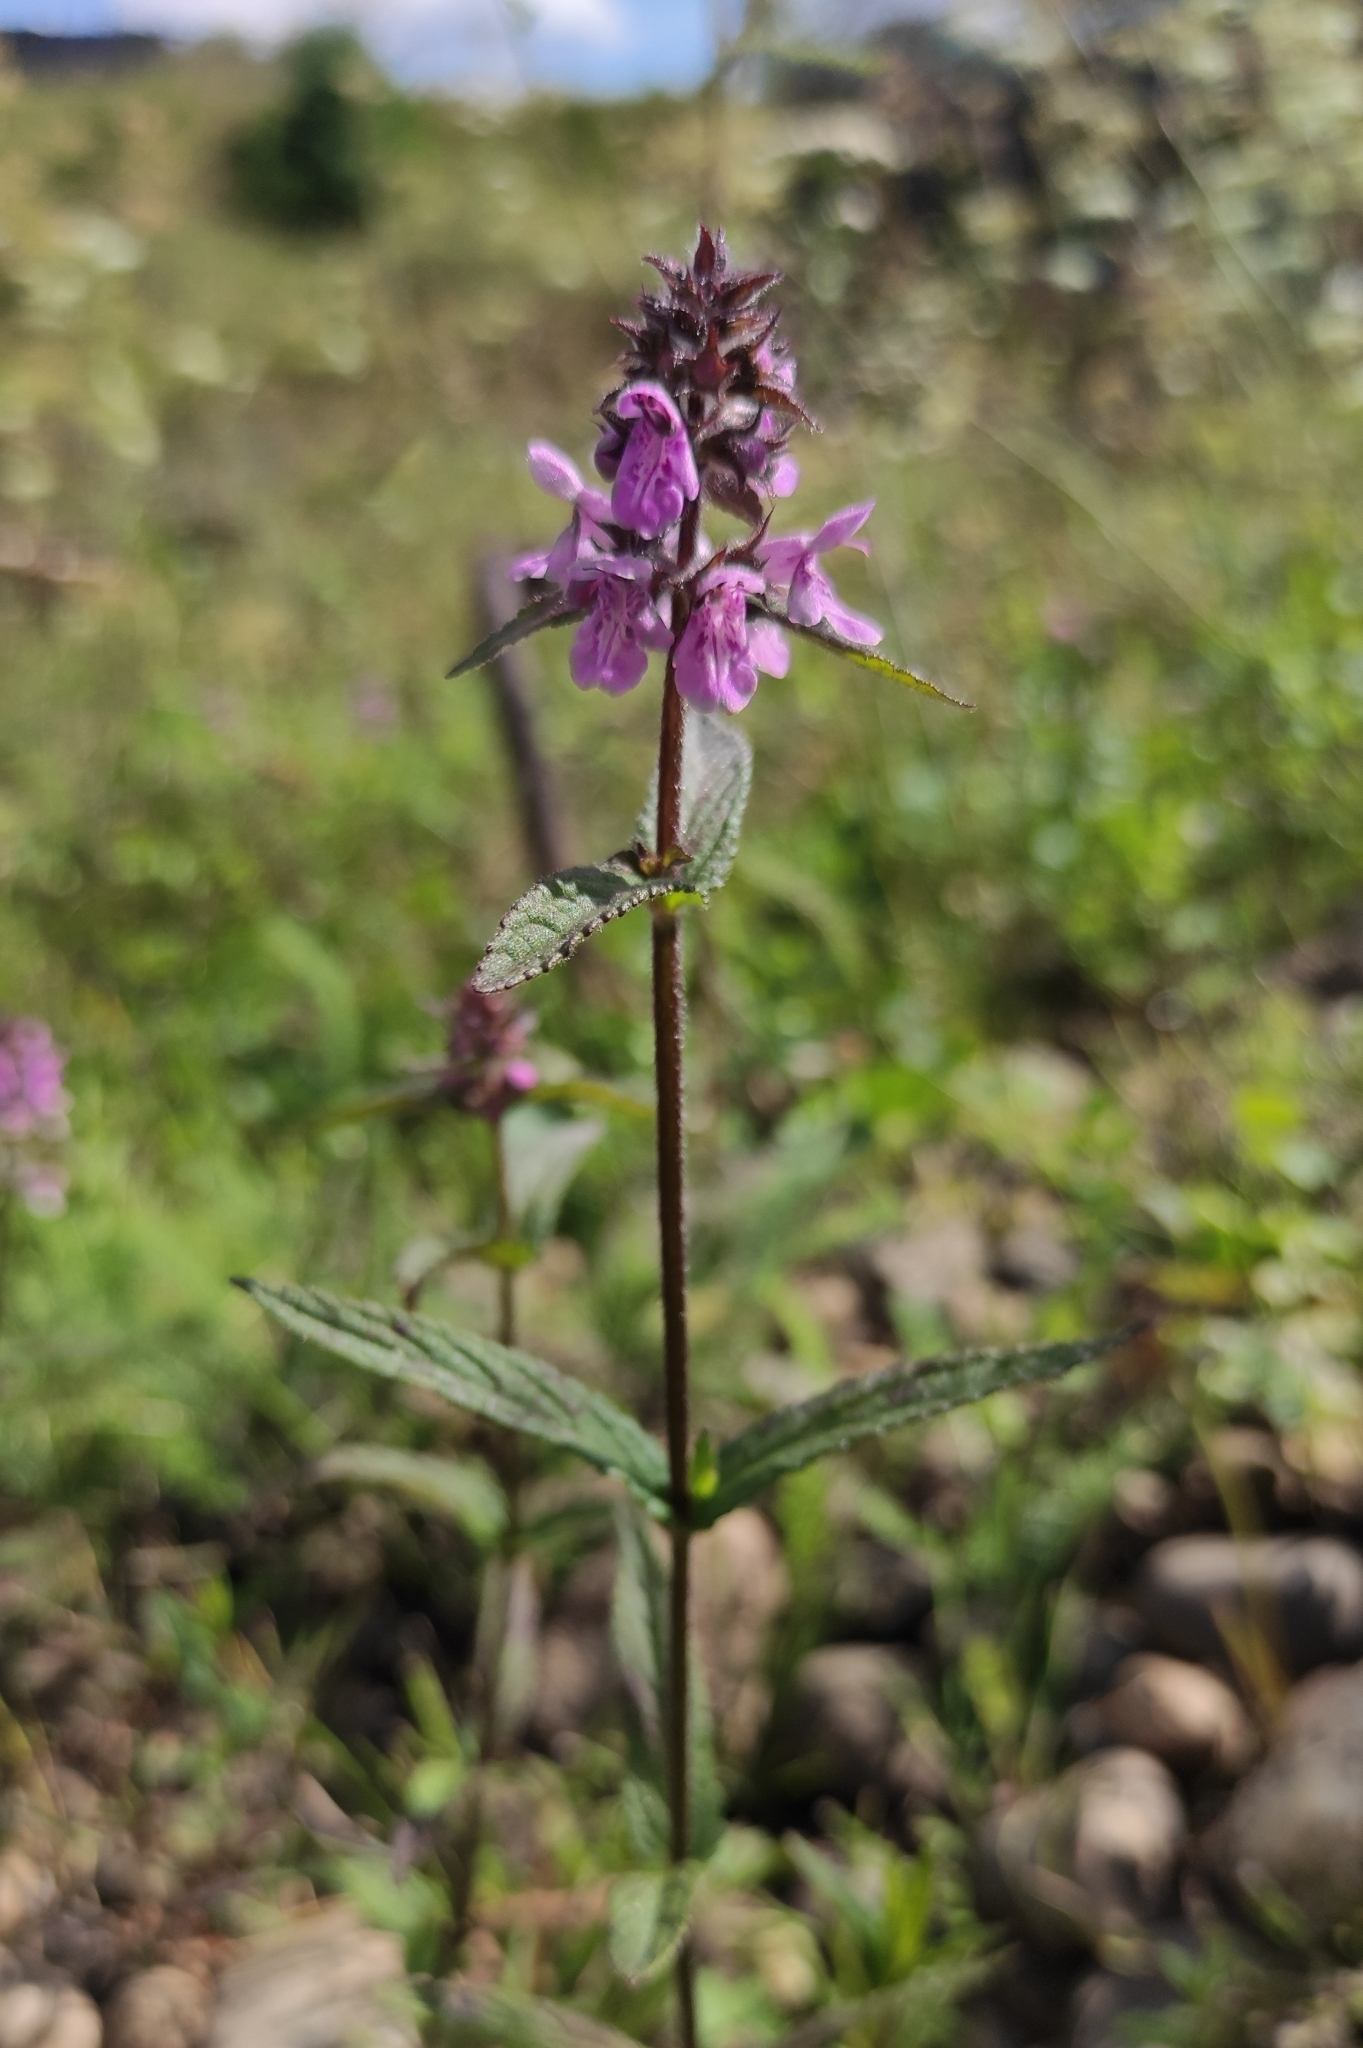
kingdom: Plantae
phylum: Tracheophyta
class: Magnoliopsida
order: Lamiales
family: Lamiaceae
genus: Stachys
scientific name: Stachys palustris
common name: Marsh woundwort
